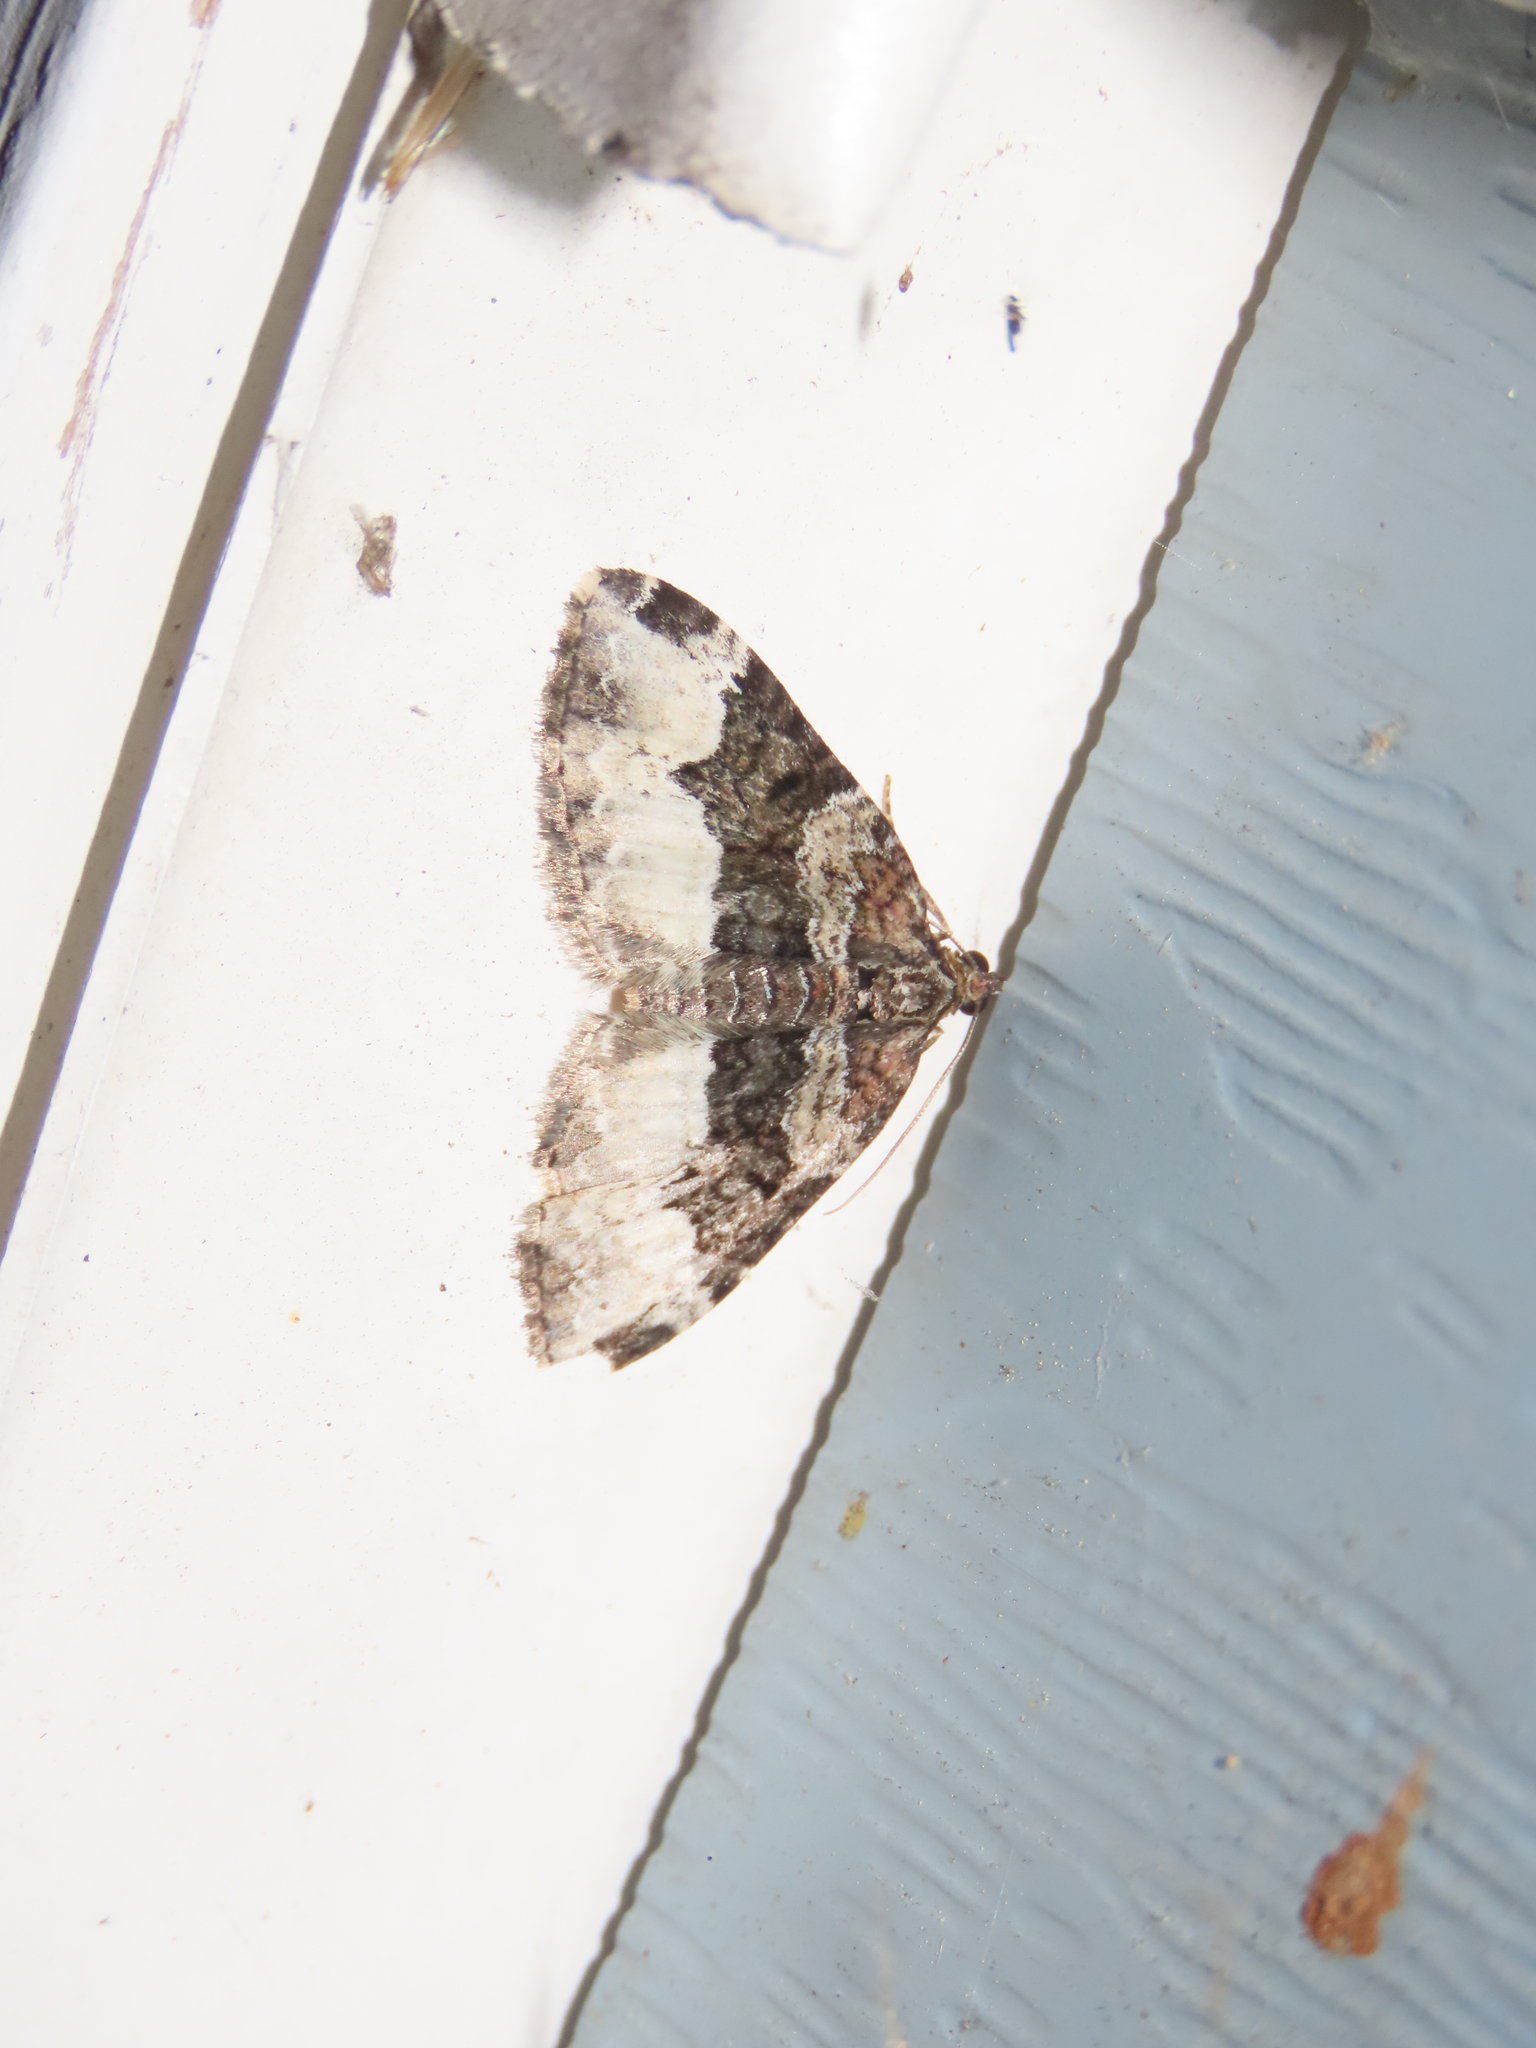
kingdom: Animalia
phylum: Arthropoda
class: Insecta
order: Lepidoptera
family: Geometridae
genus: Euphyia
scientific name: Euphyia intermediata
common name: Sharp-angled carpet
